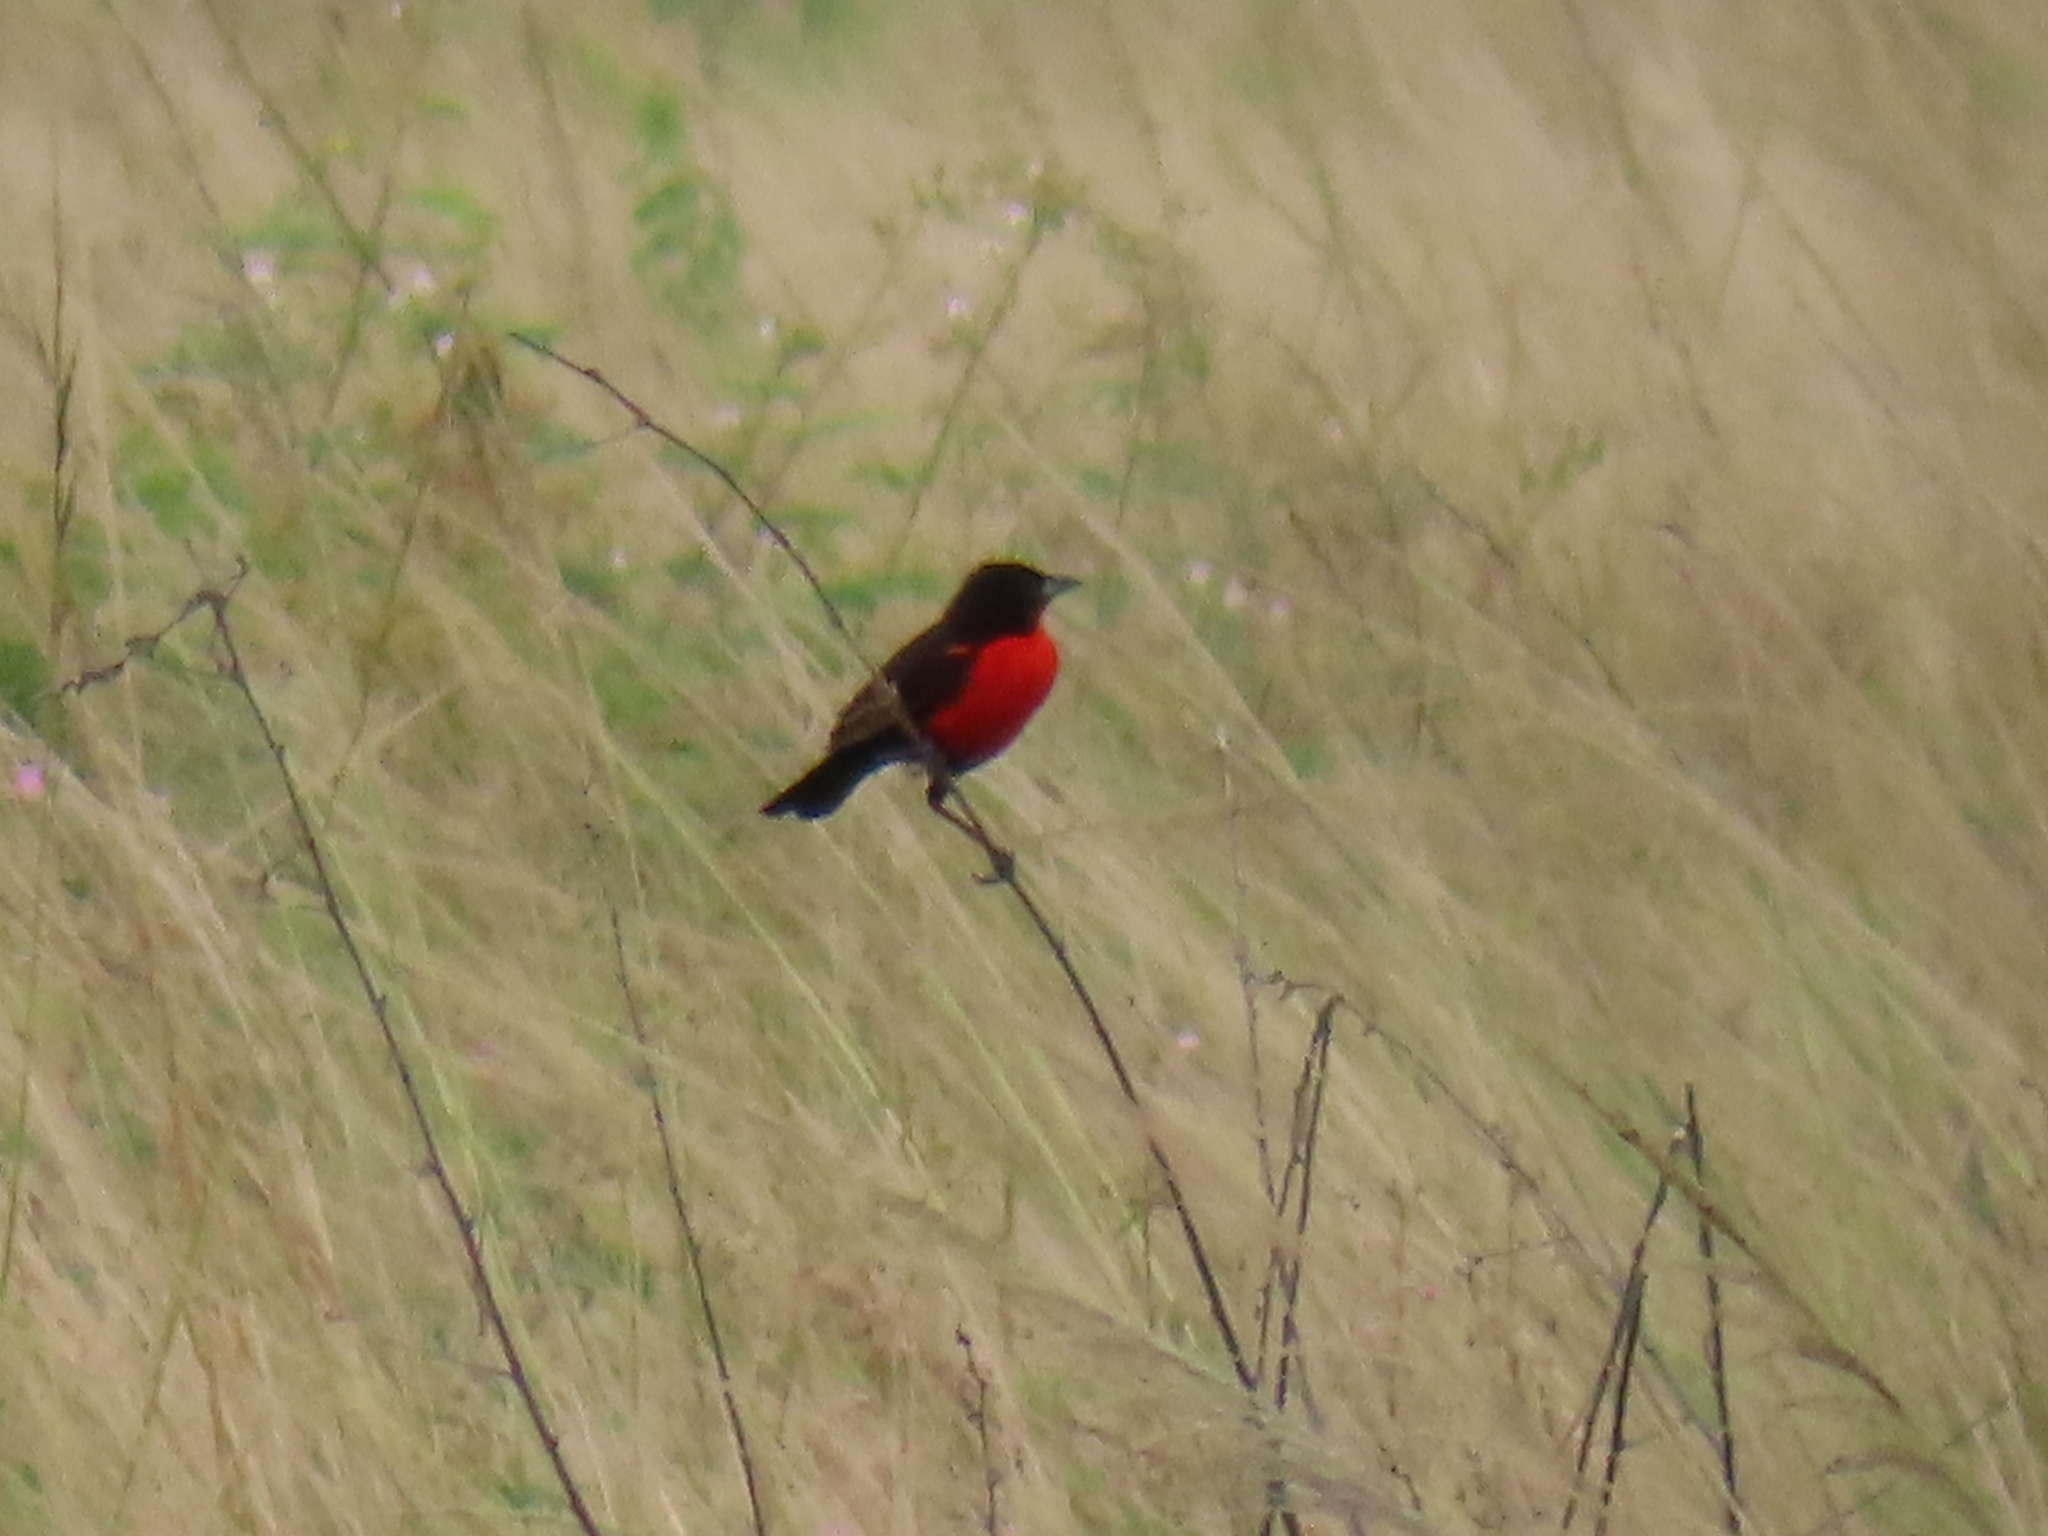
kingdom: Animalia
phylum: Chordata
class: Aves
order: Passeriformes
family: Icteridae
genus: Sturnella
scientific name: Sturnella militaris
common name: Red-breasted blackbird
